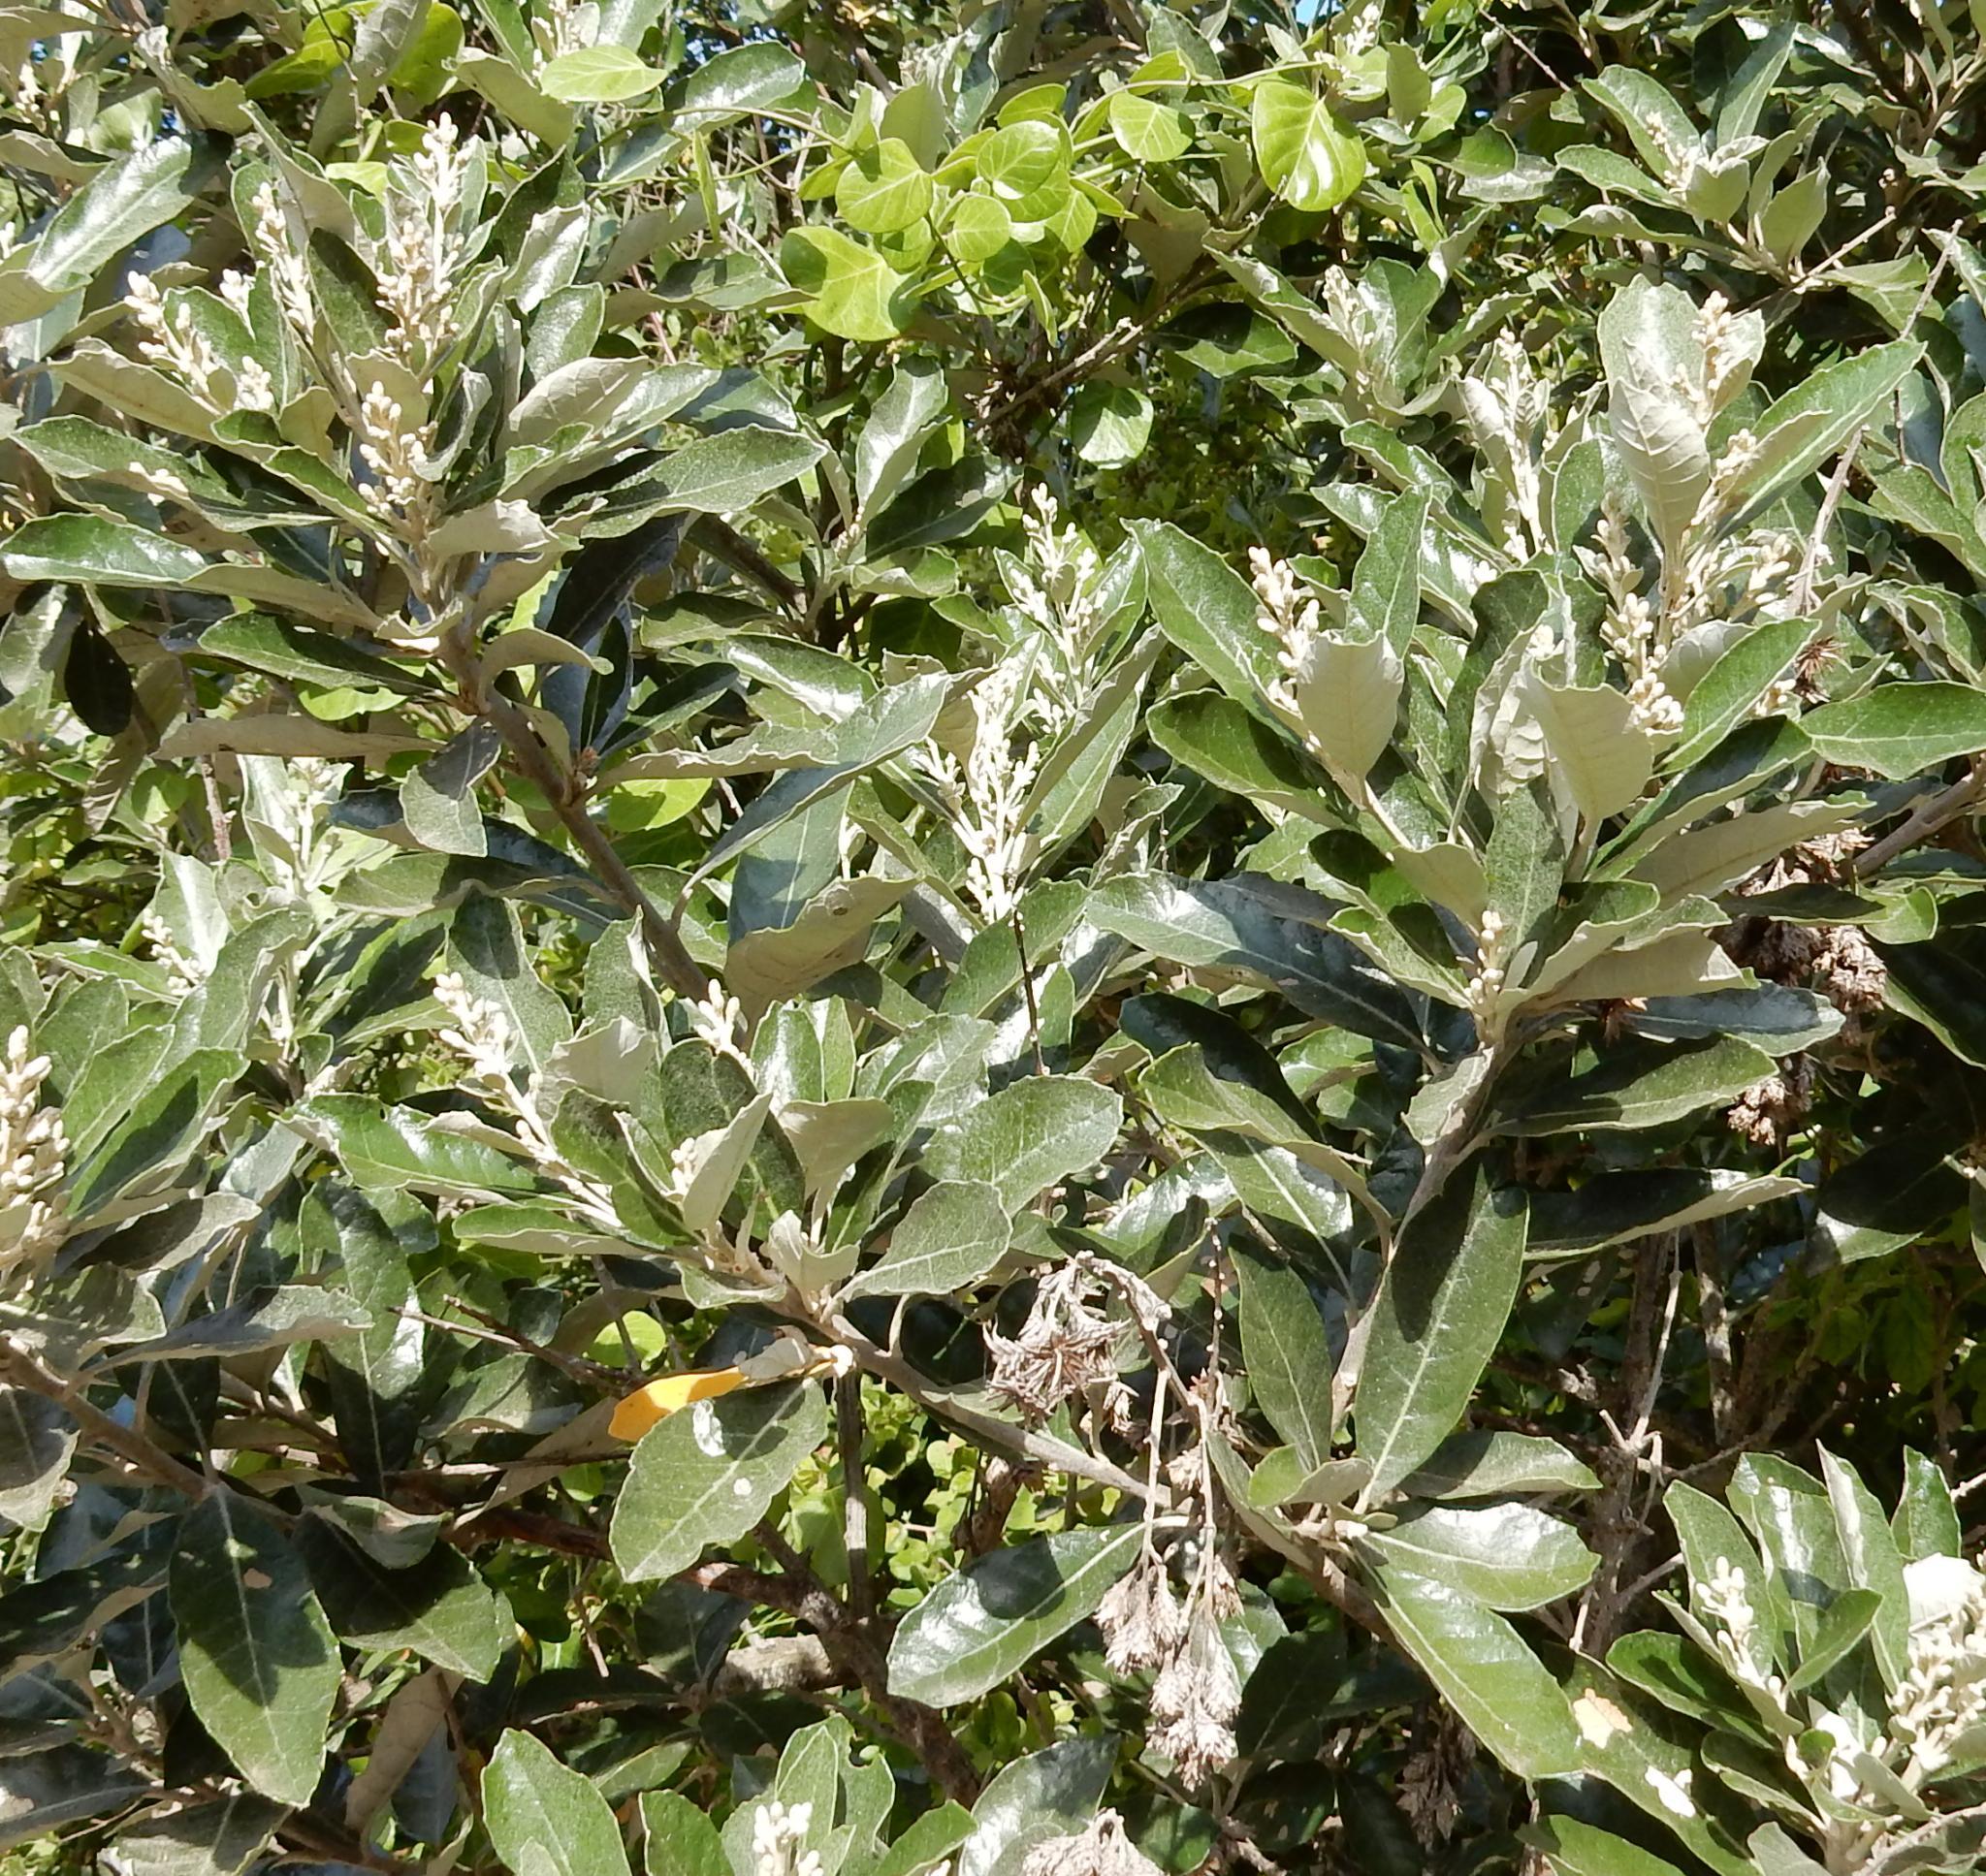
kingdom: Plantae
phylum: Tracheophyta
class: Magnoliopsida
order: Asterales
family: Asteraceae
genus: Brachylaena
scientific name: Brachylaena discolor
